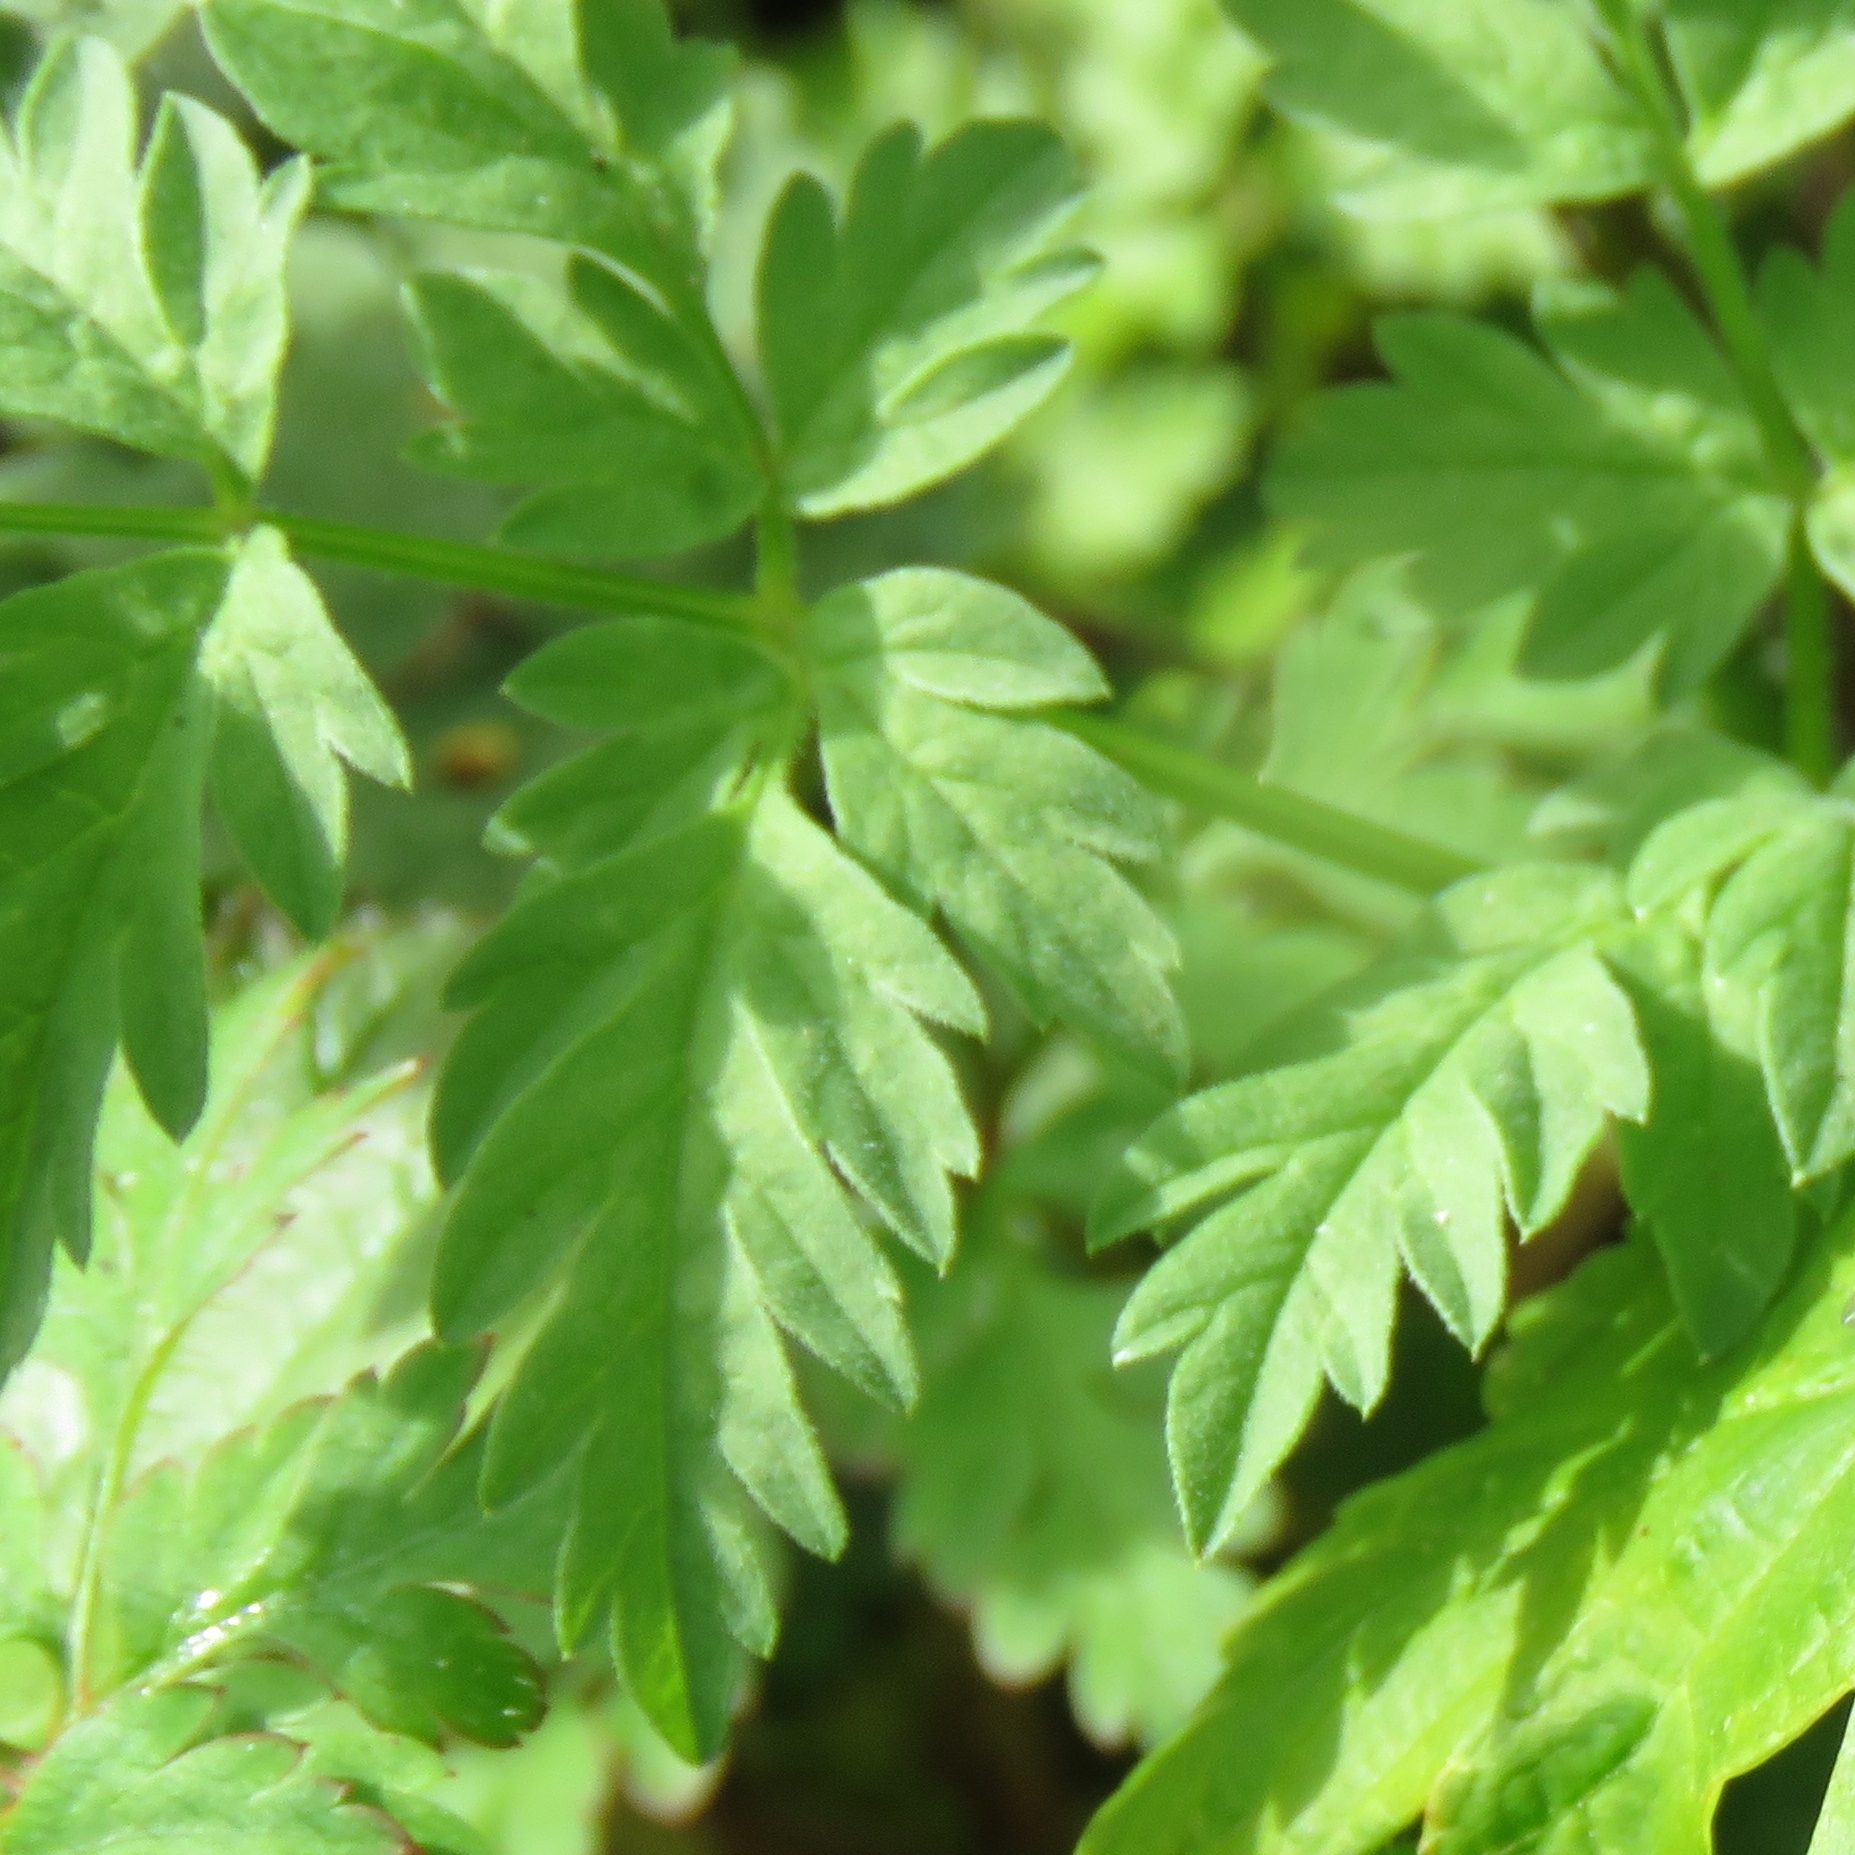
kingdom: Plantae
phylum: Tracheophyta
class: Magnoliopsida
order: Apiales
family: Apiaceae
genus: Anthriscus
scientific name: Anthriscus sylvestris
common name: Cow parsley
